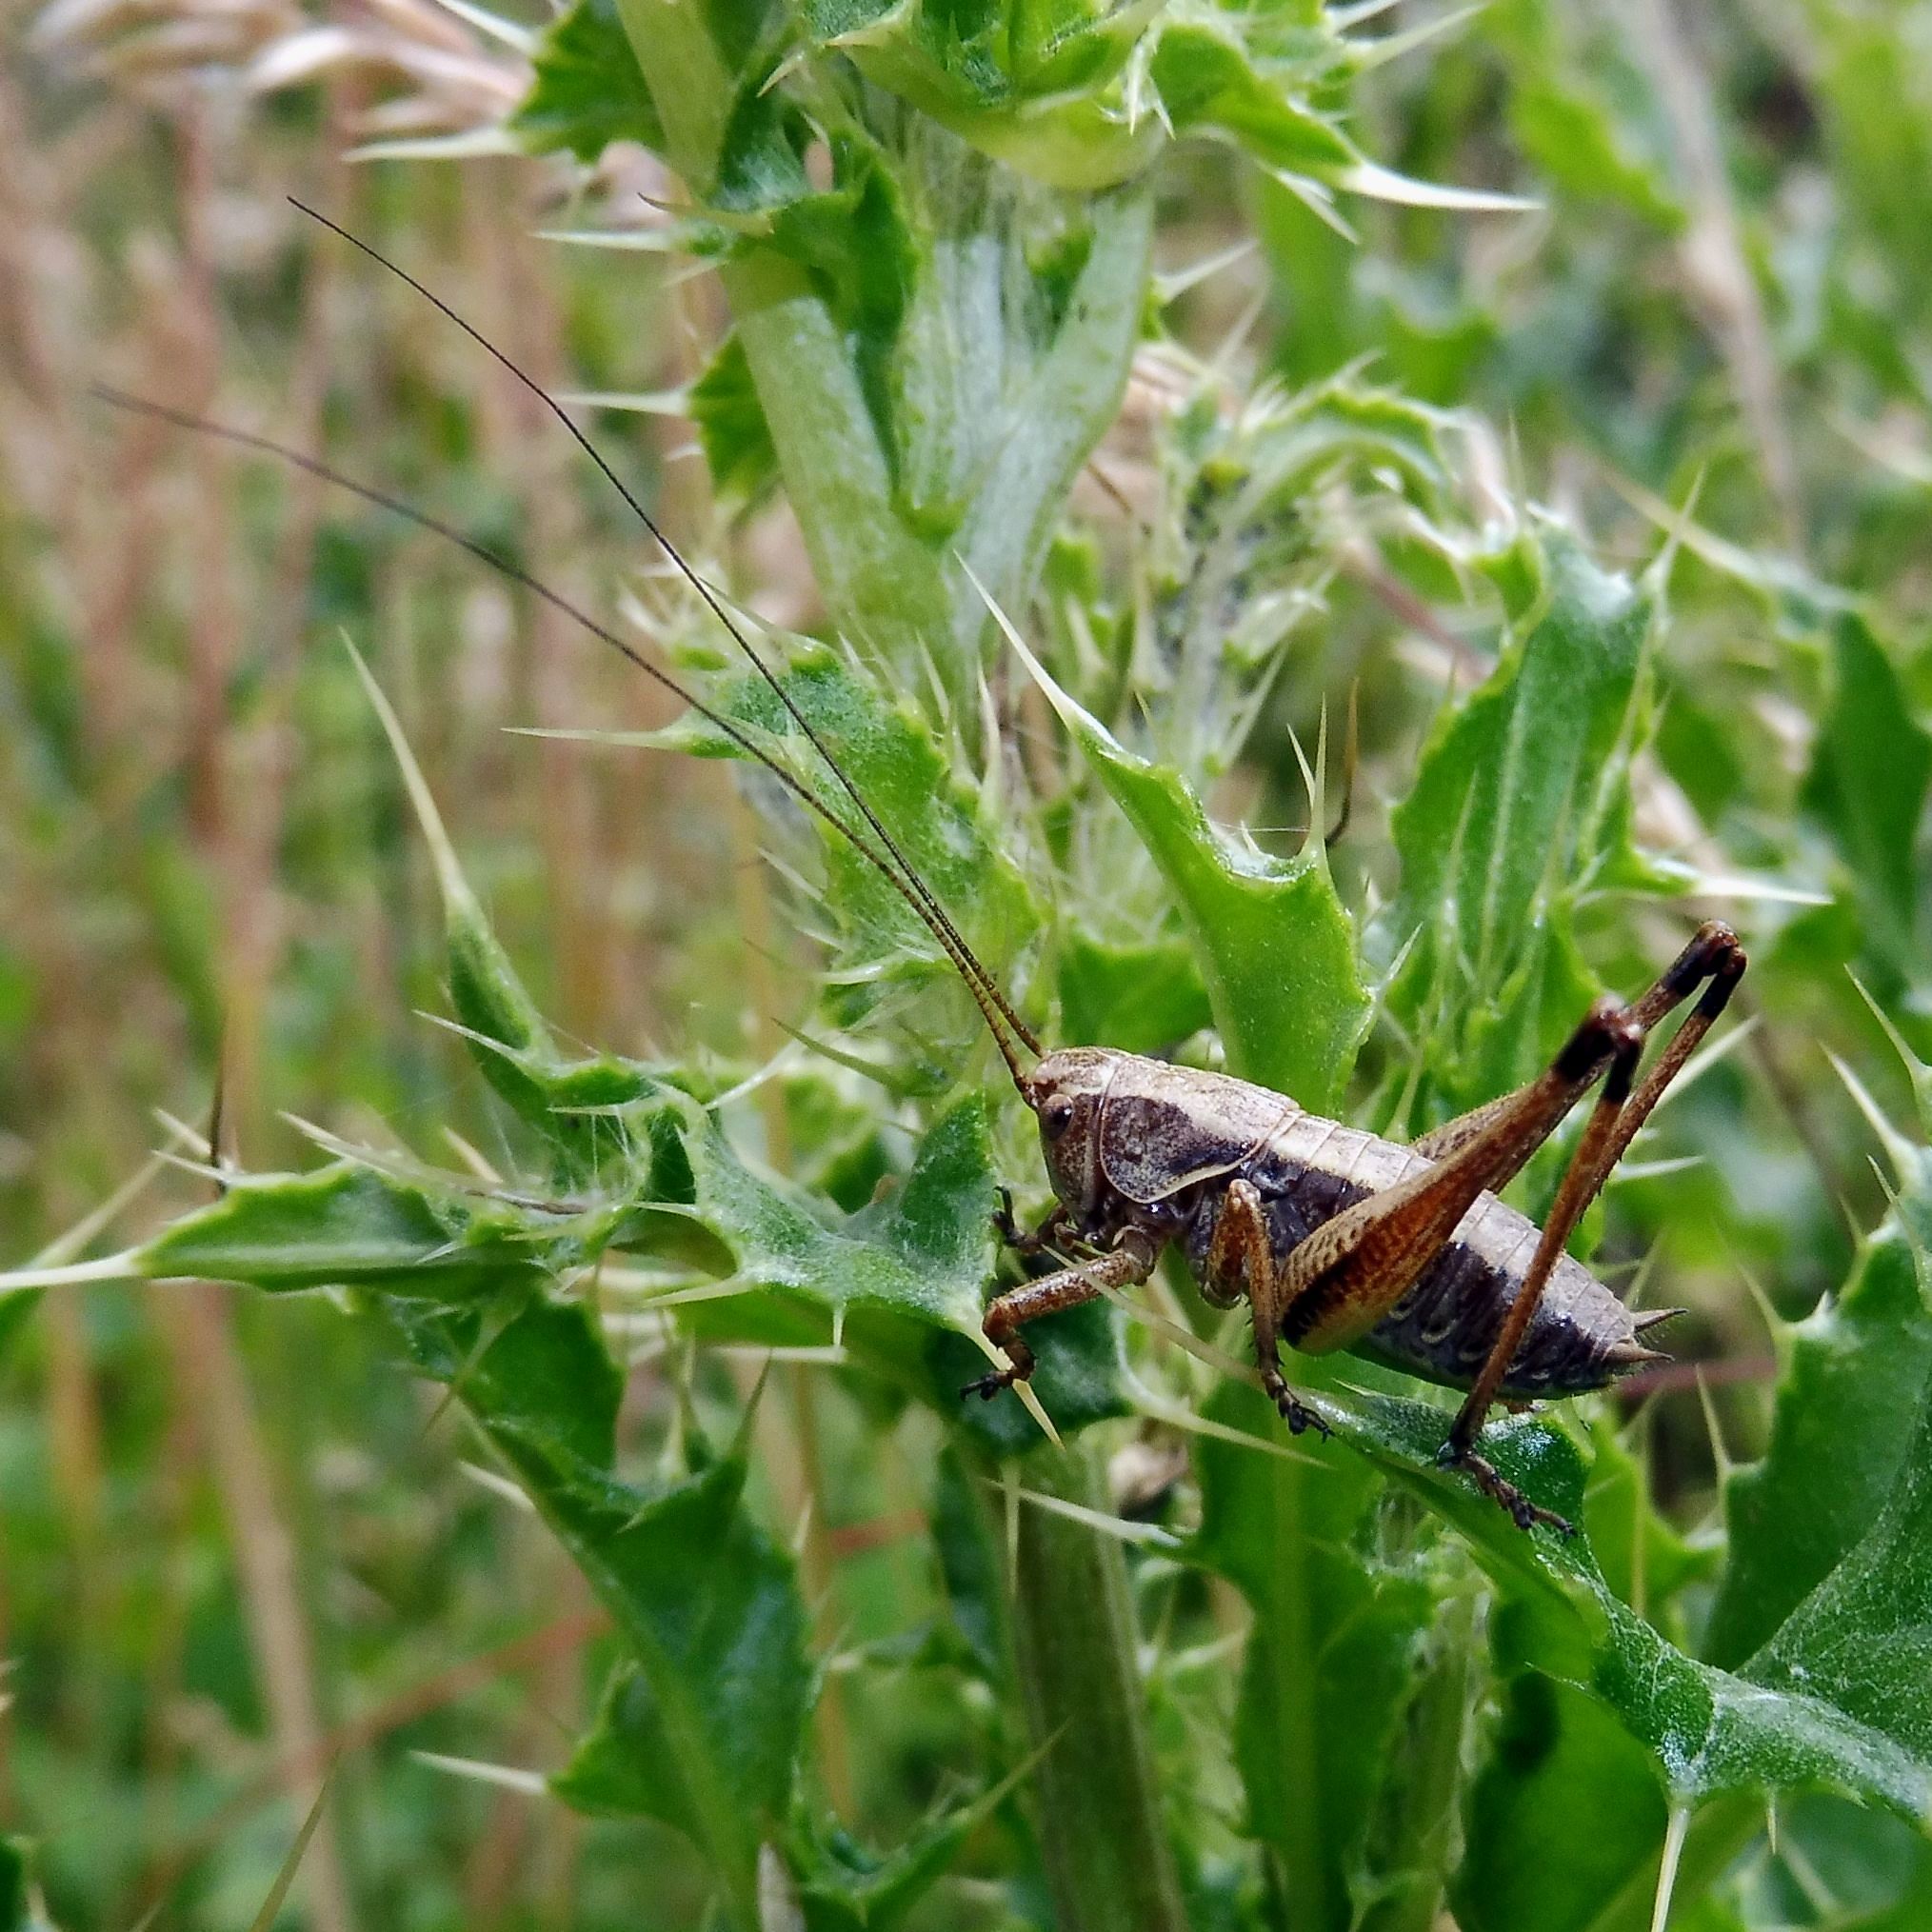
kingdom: Animalia
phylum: Arthropoda
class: Insecta
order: Orthoptera
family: Tettigoniidae
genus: Pholidoptera
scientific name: Pholidoptera griseoaptera
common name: Dark bush-cricket
